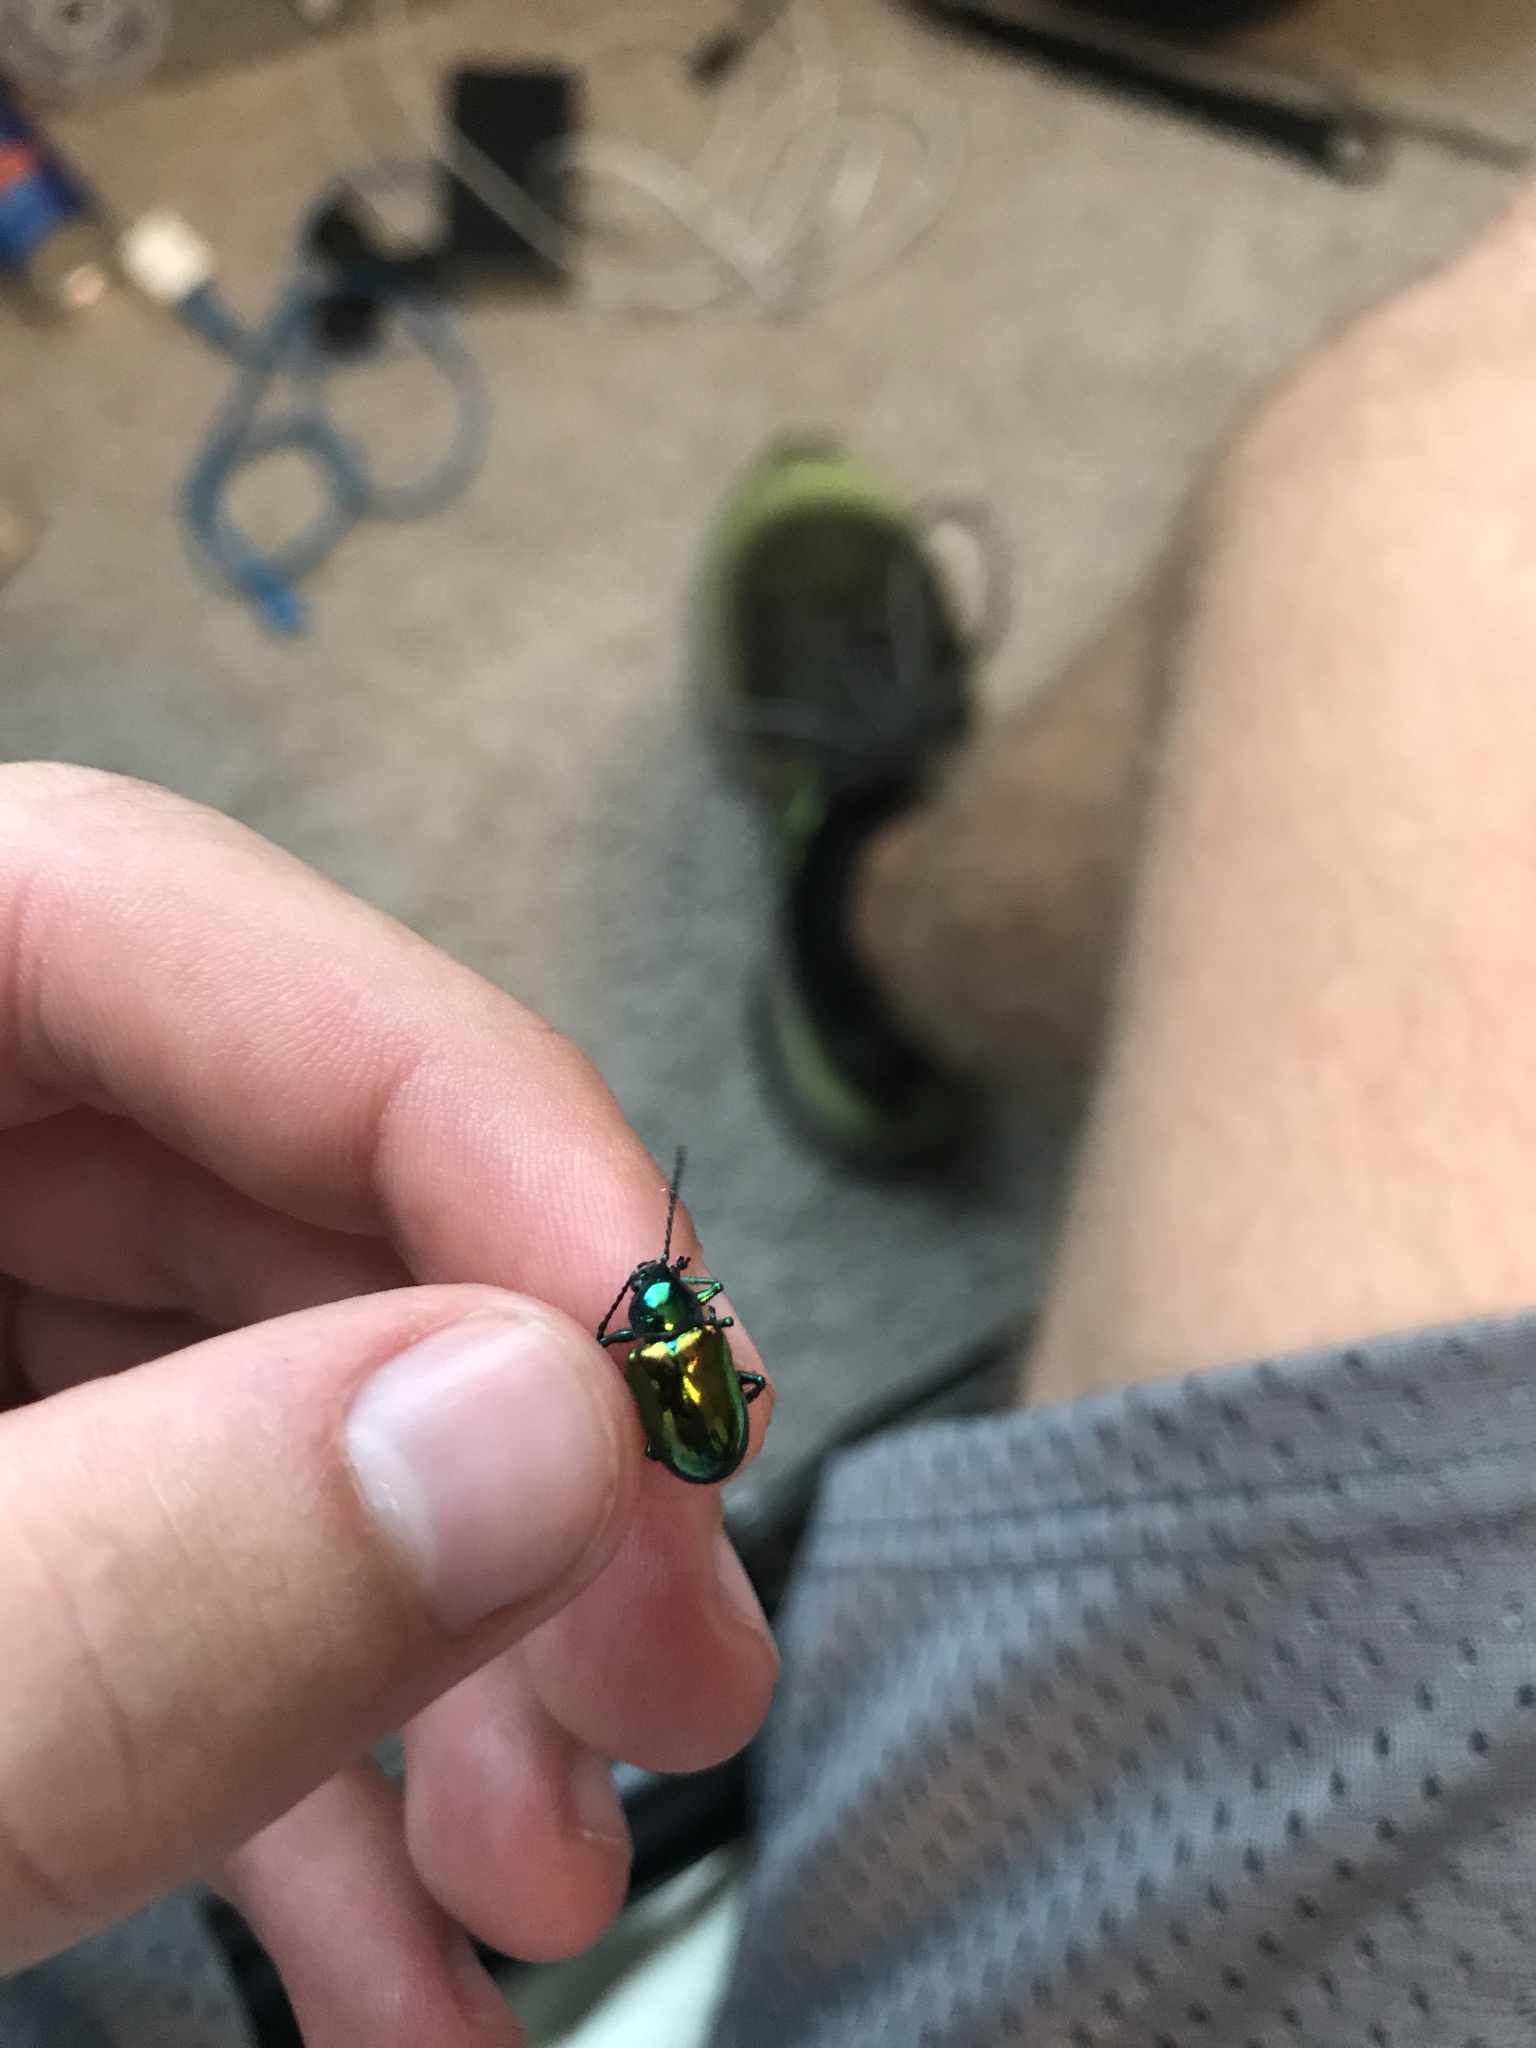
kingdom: Animalia
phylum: Arthropoda
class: Insecta
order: Coleoptera
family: Chrysomelidae
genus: Chrysochus
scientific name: Chrysochus auratus
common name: Dogbane leaf beetle
